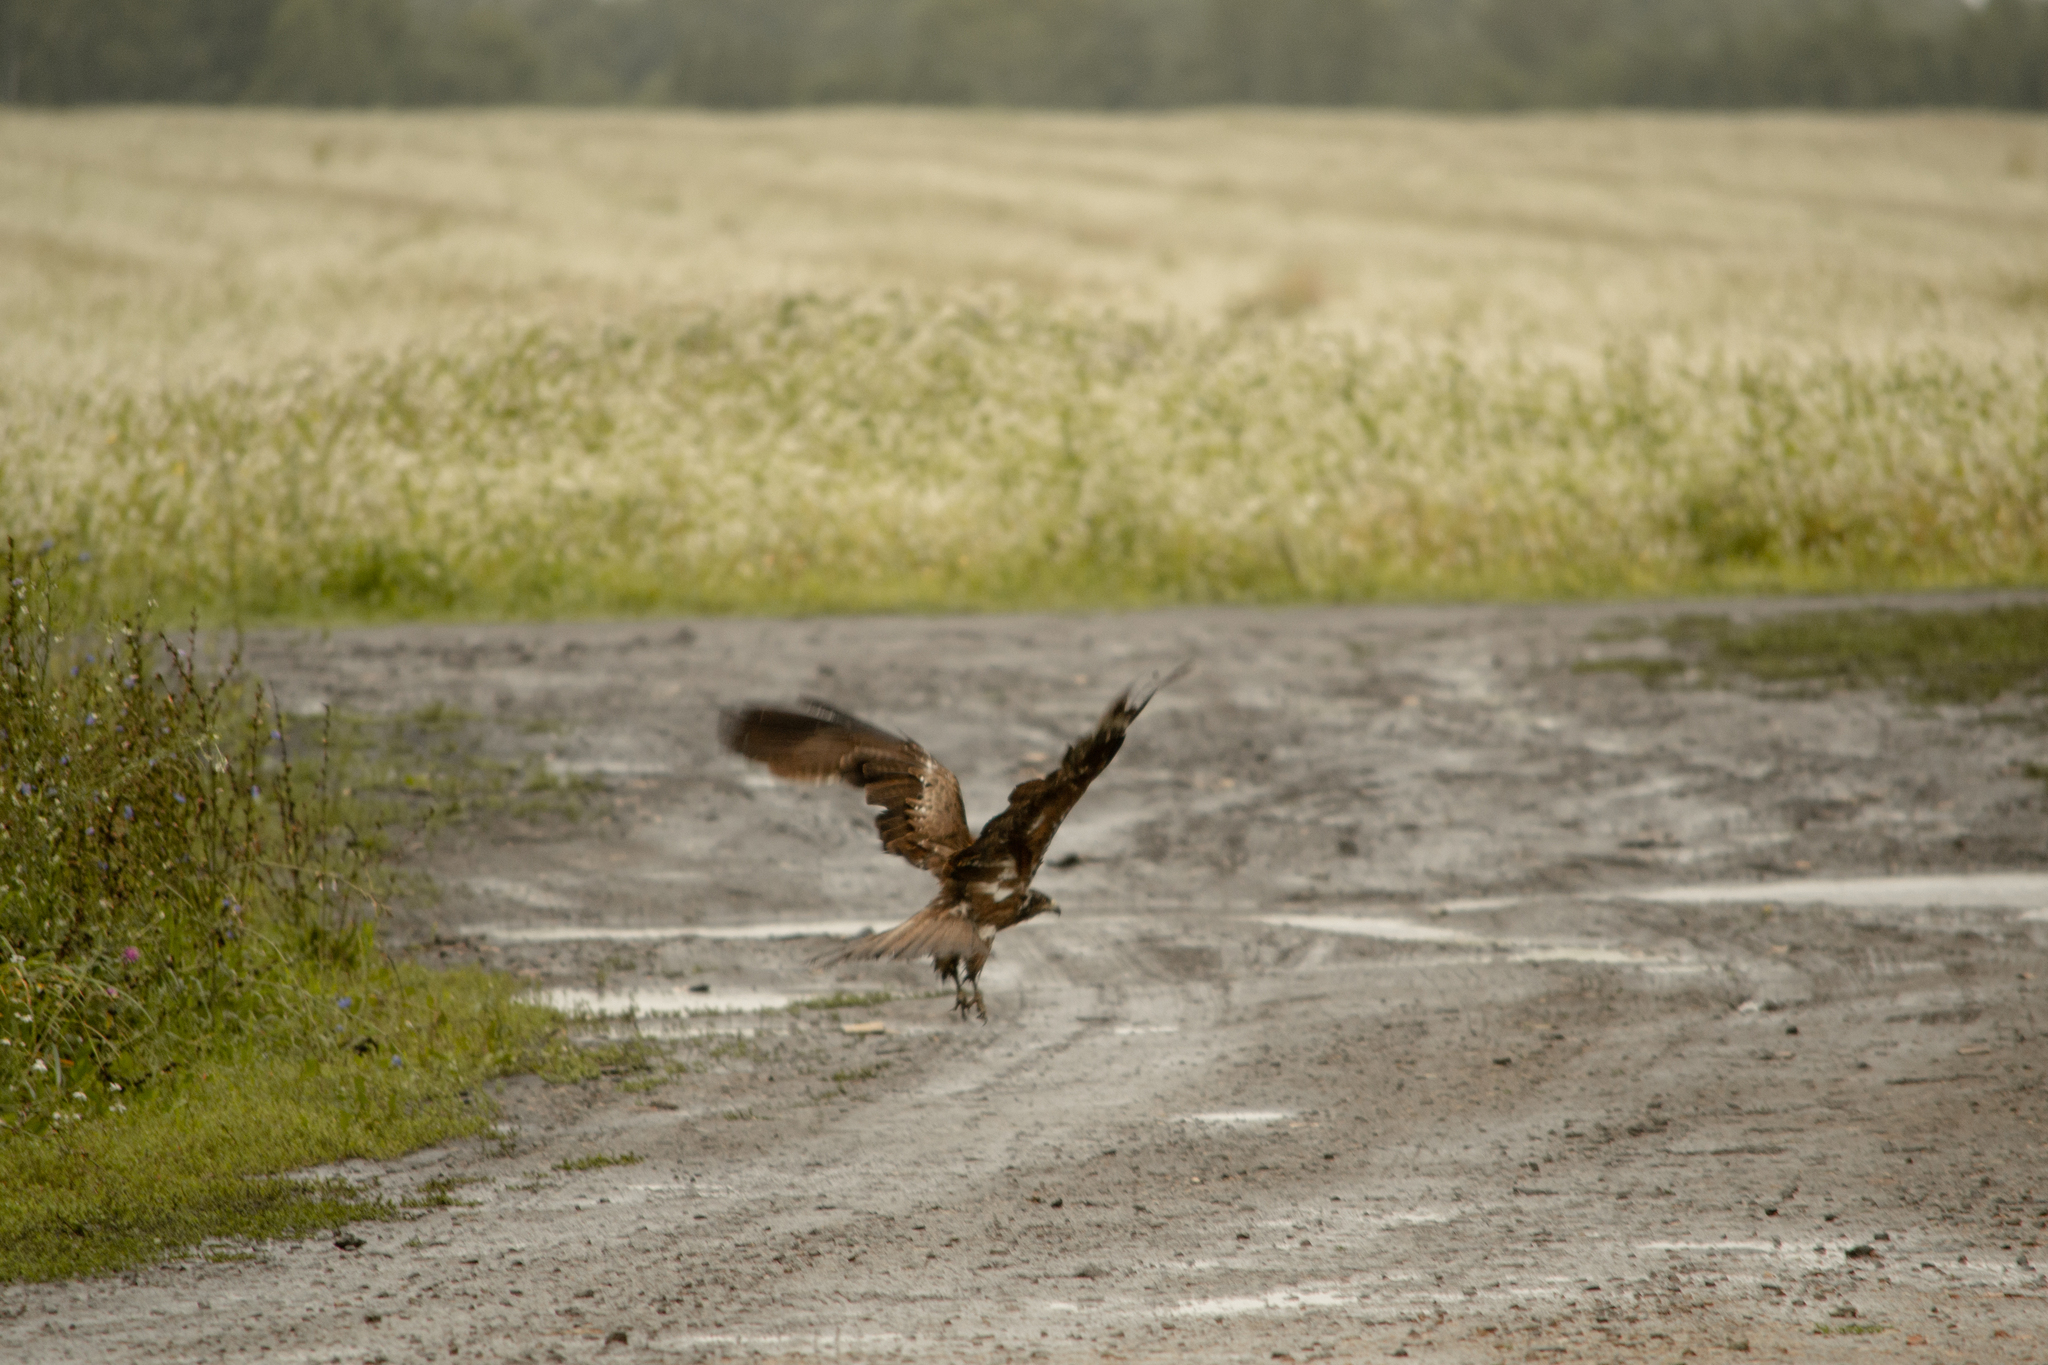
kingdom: Animalia
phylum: Chordata
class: Aves
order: Accipitriformes
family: Accipitridae
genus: Milvus
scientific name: Milvus migrans
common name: Black kite
